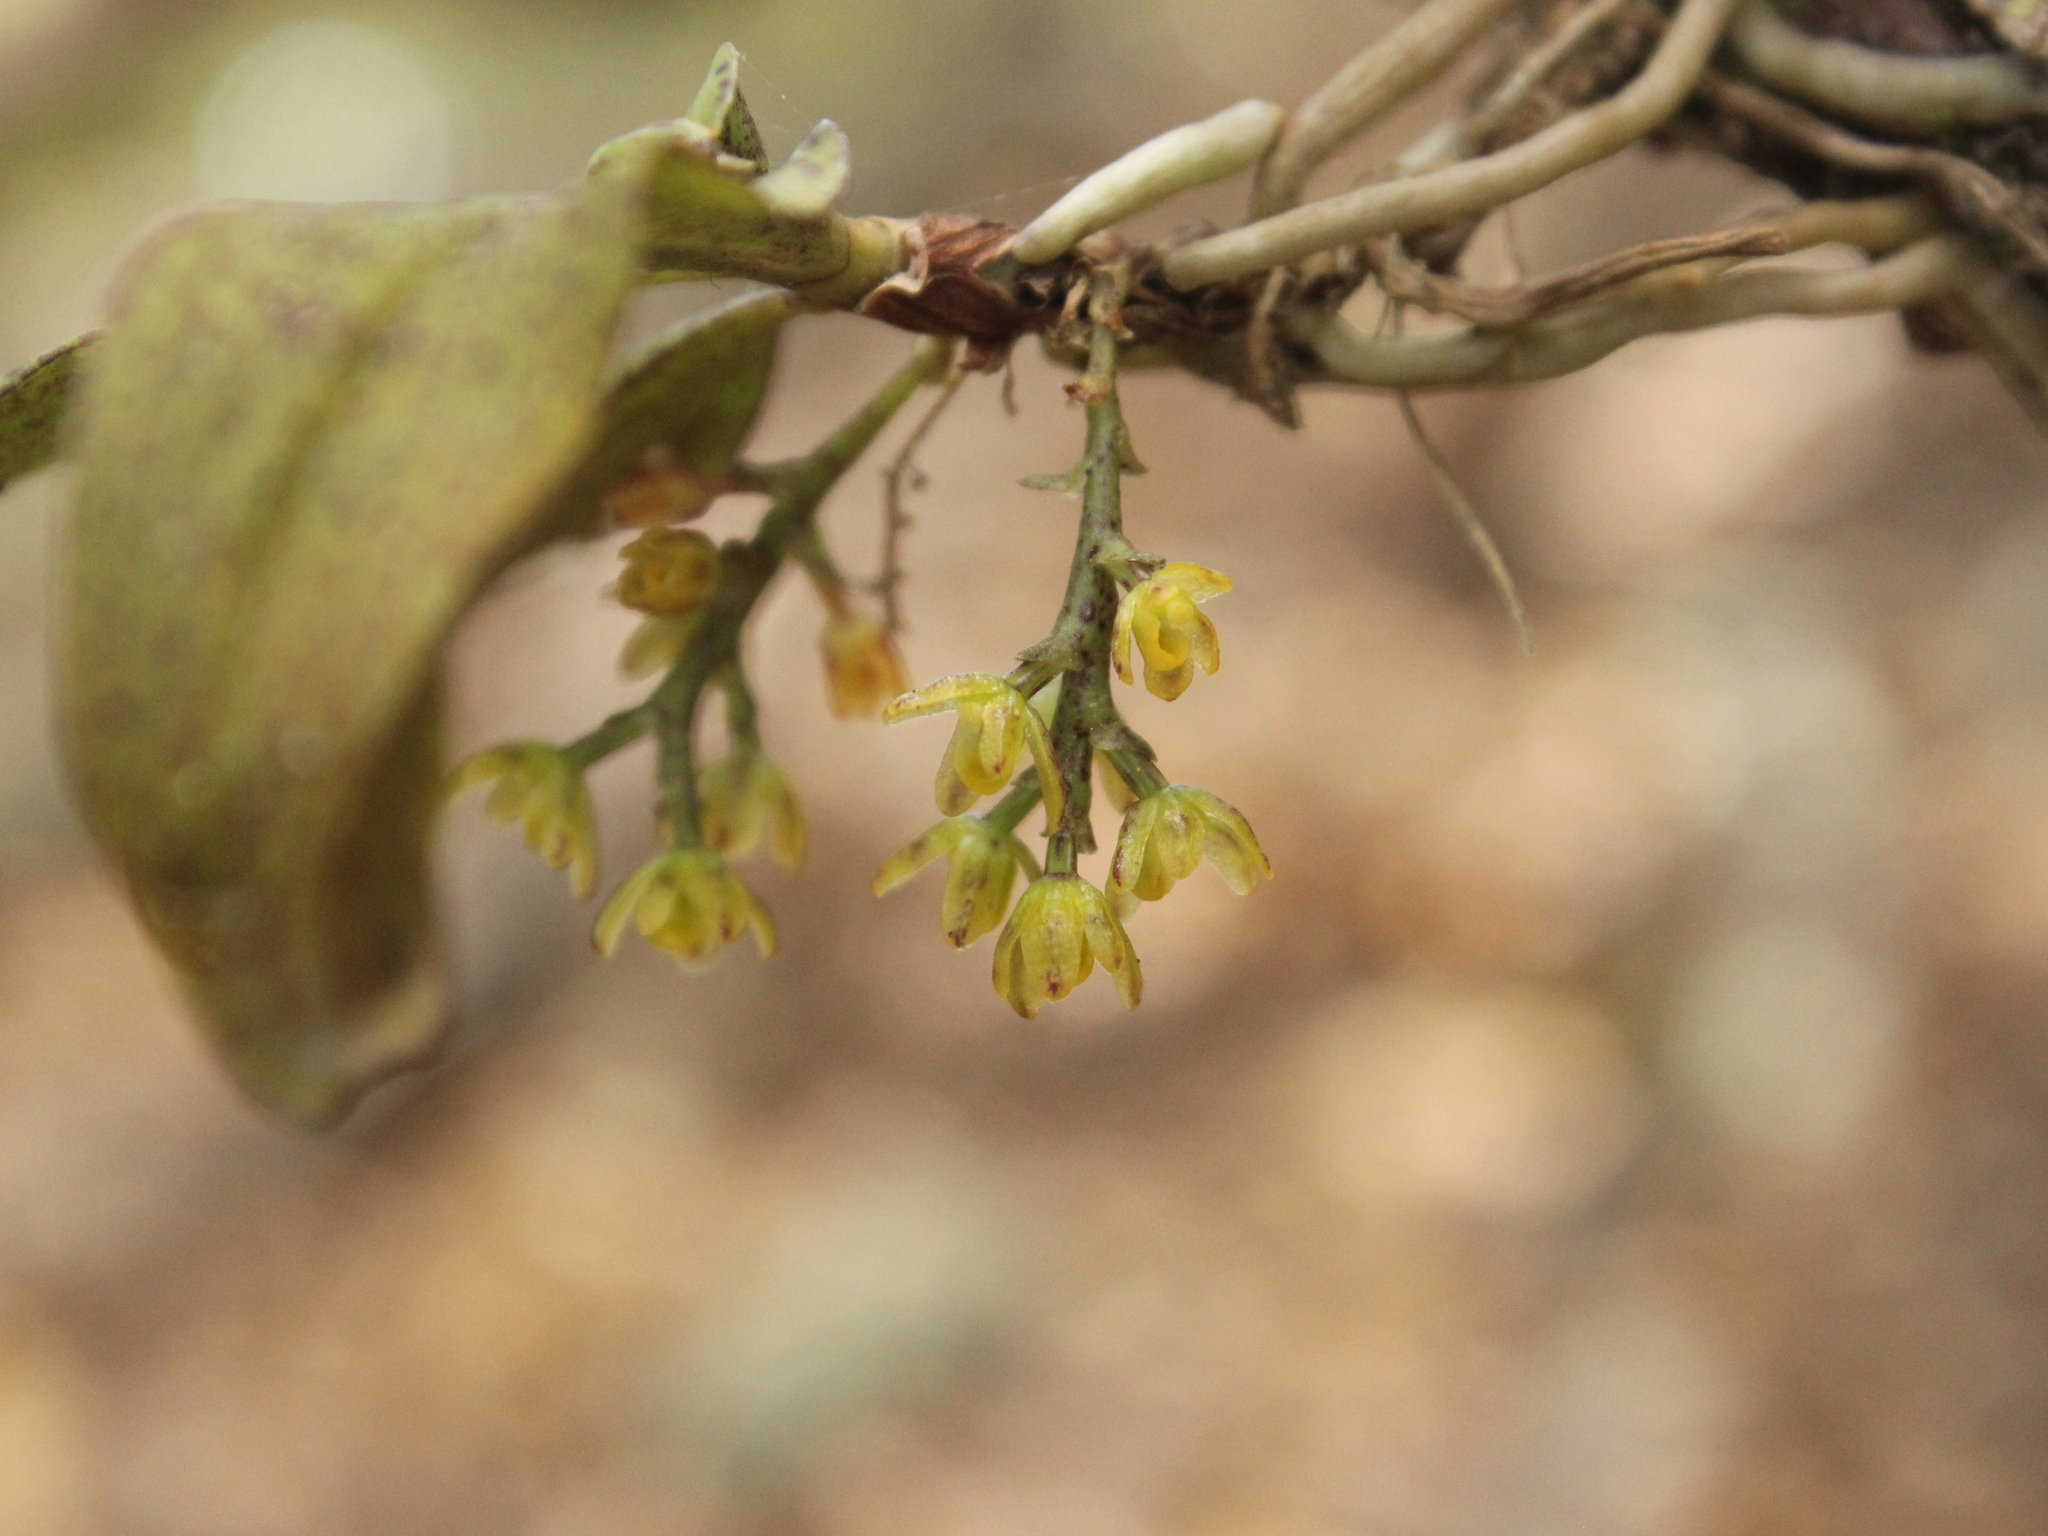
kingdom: Plantae
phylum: Tracheophyta
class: Liliopsida
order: Asparagales
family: Orchidaceae
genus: Drymoanthus
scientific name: Drymoanthus flavus
